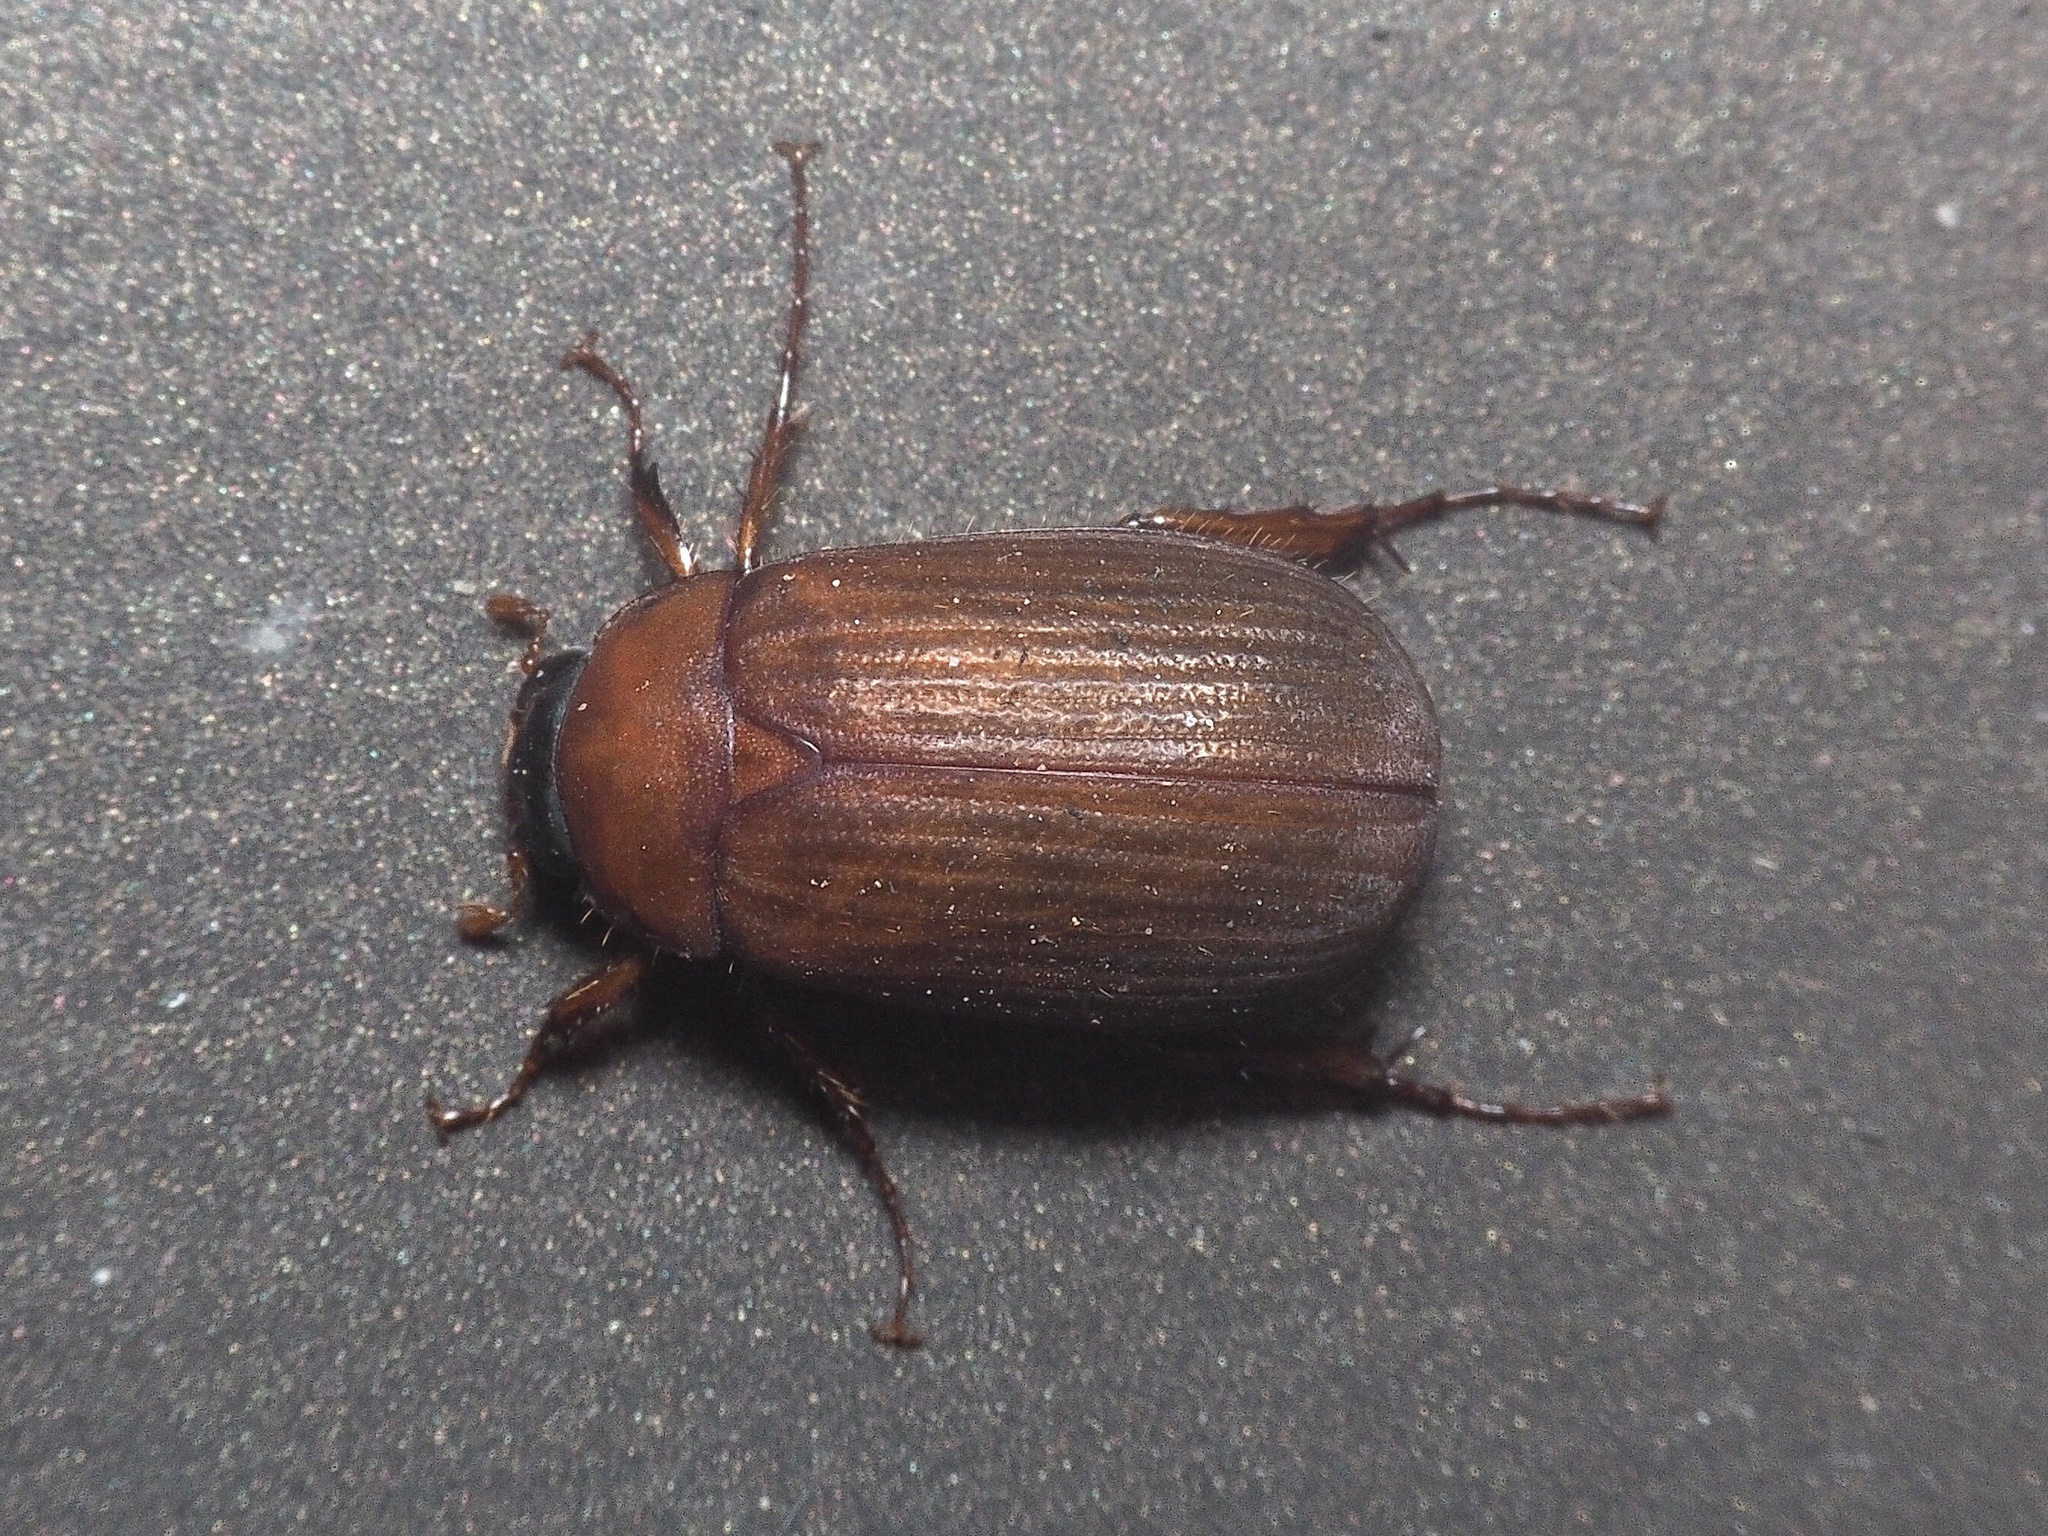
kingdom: Animalia
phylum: Arthropoda
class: Insecta
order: Coleoptera
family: Scarabaeidae
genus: Serica
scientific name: Serica brunnea
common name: Brown chafer
